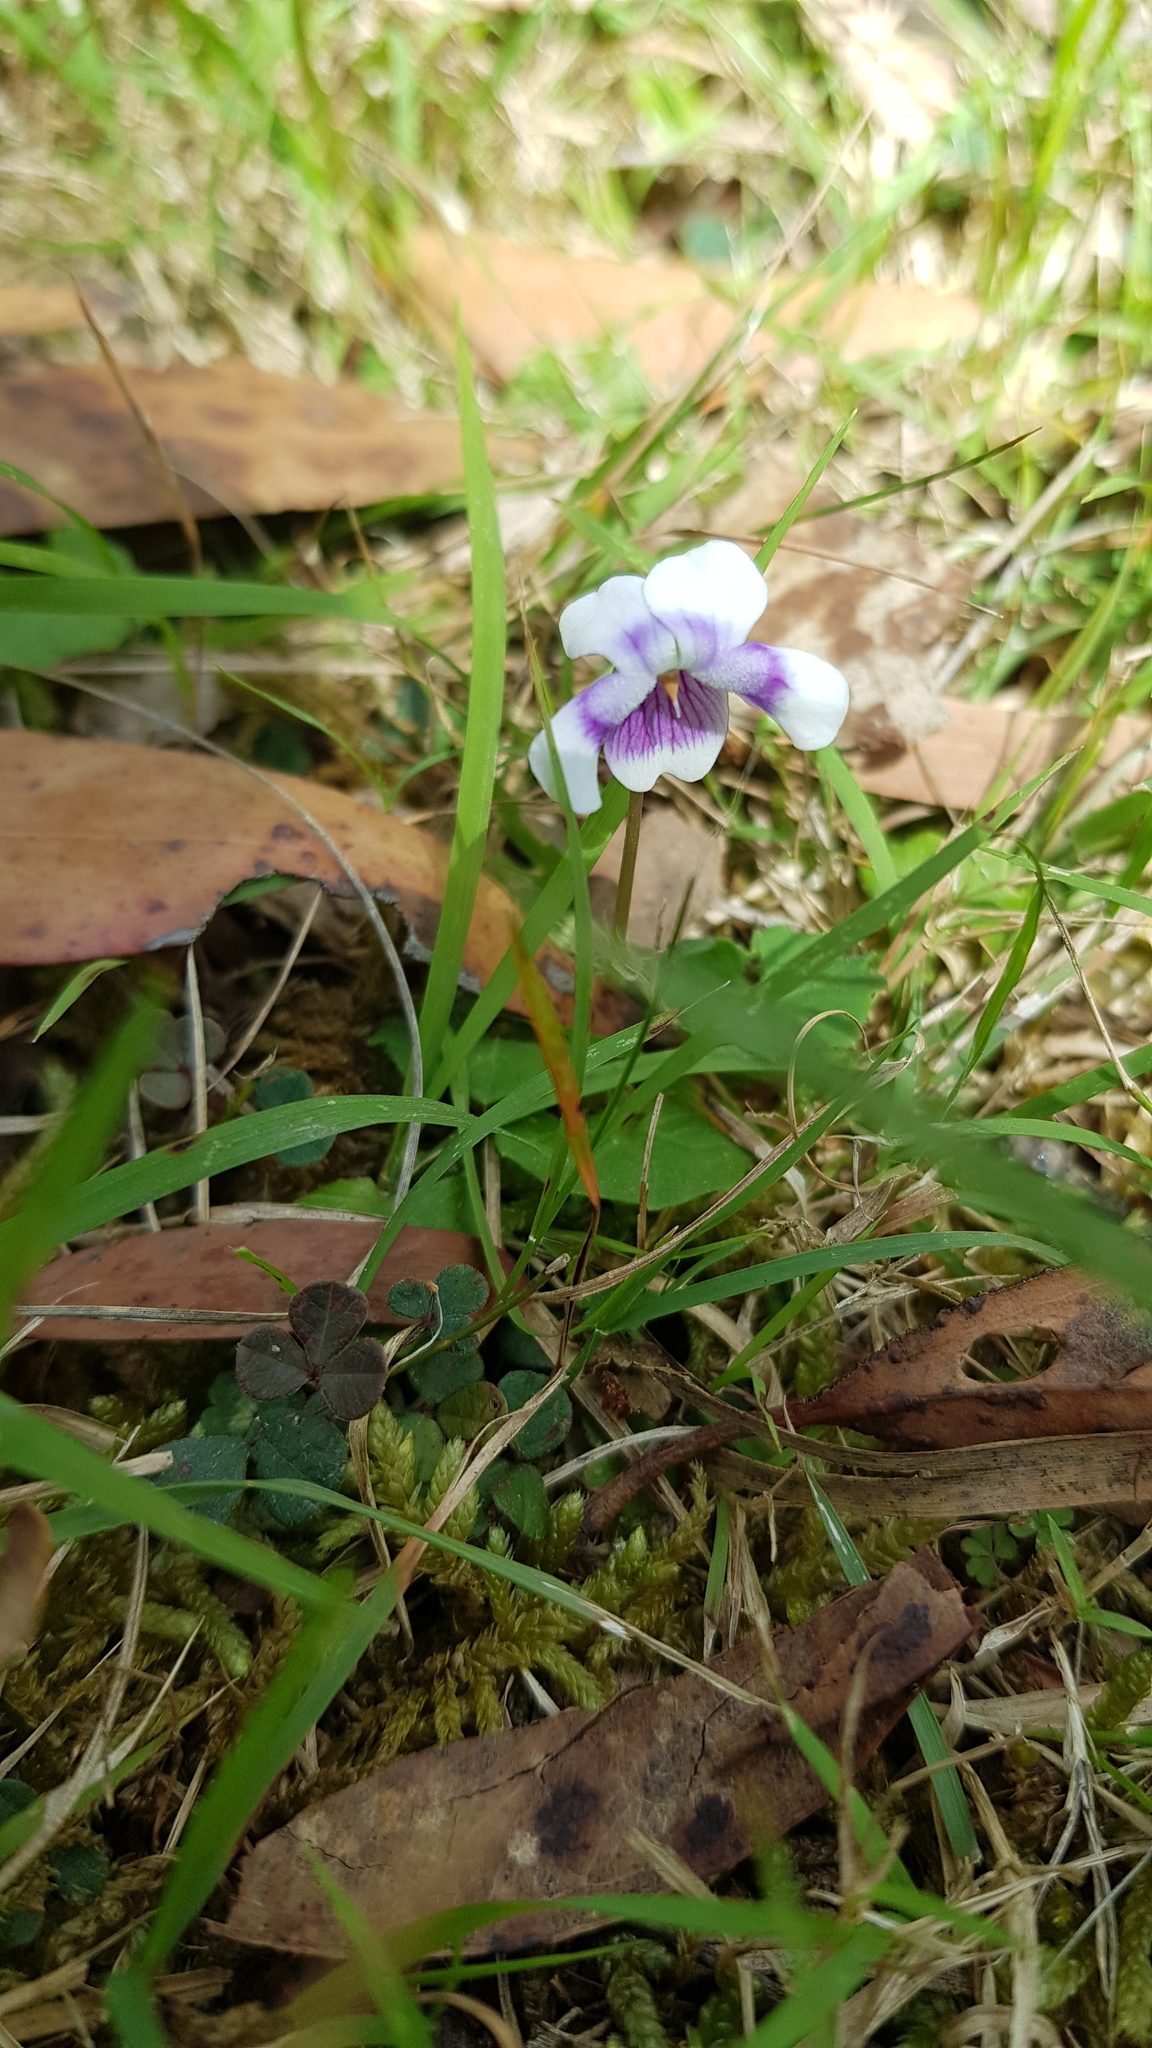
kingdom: Plantae
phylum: Tracheophyta
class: Magnoliopsida
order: Malpighiales
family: Violaceae
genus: Viola
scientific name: Viola banksii
